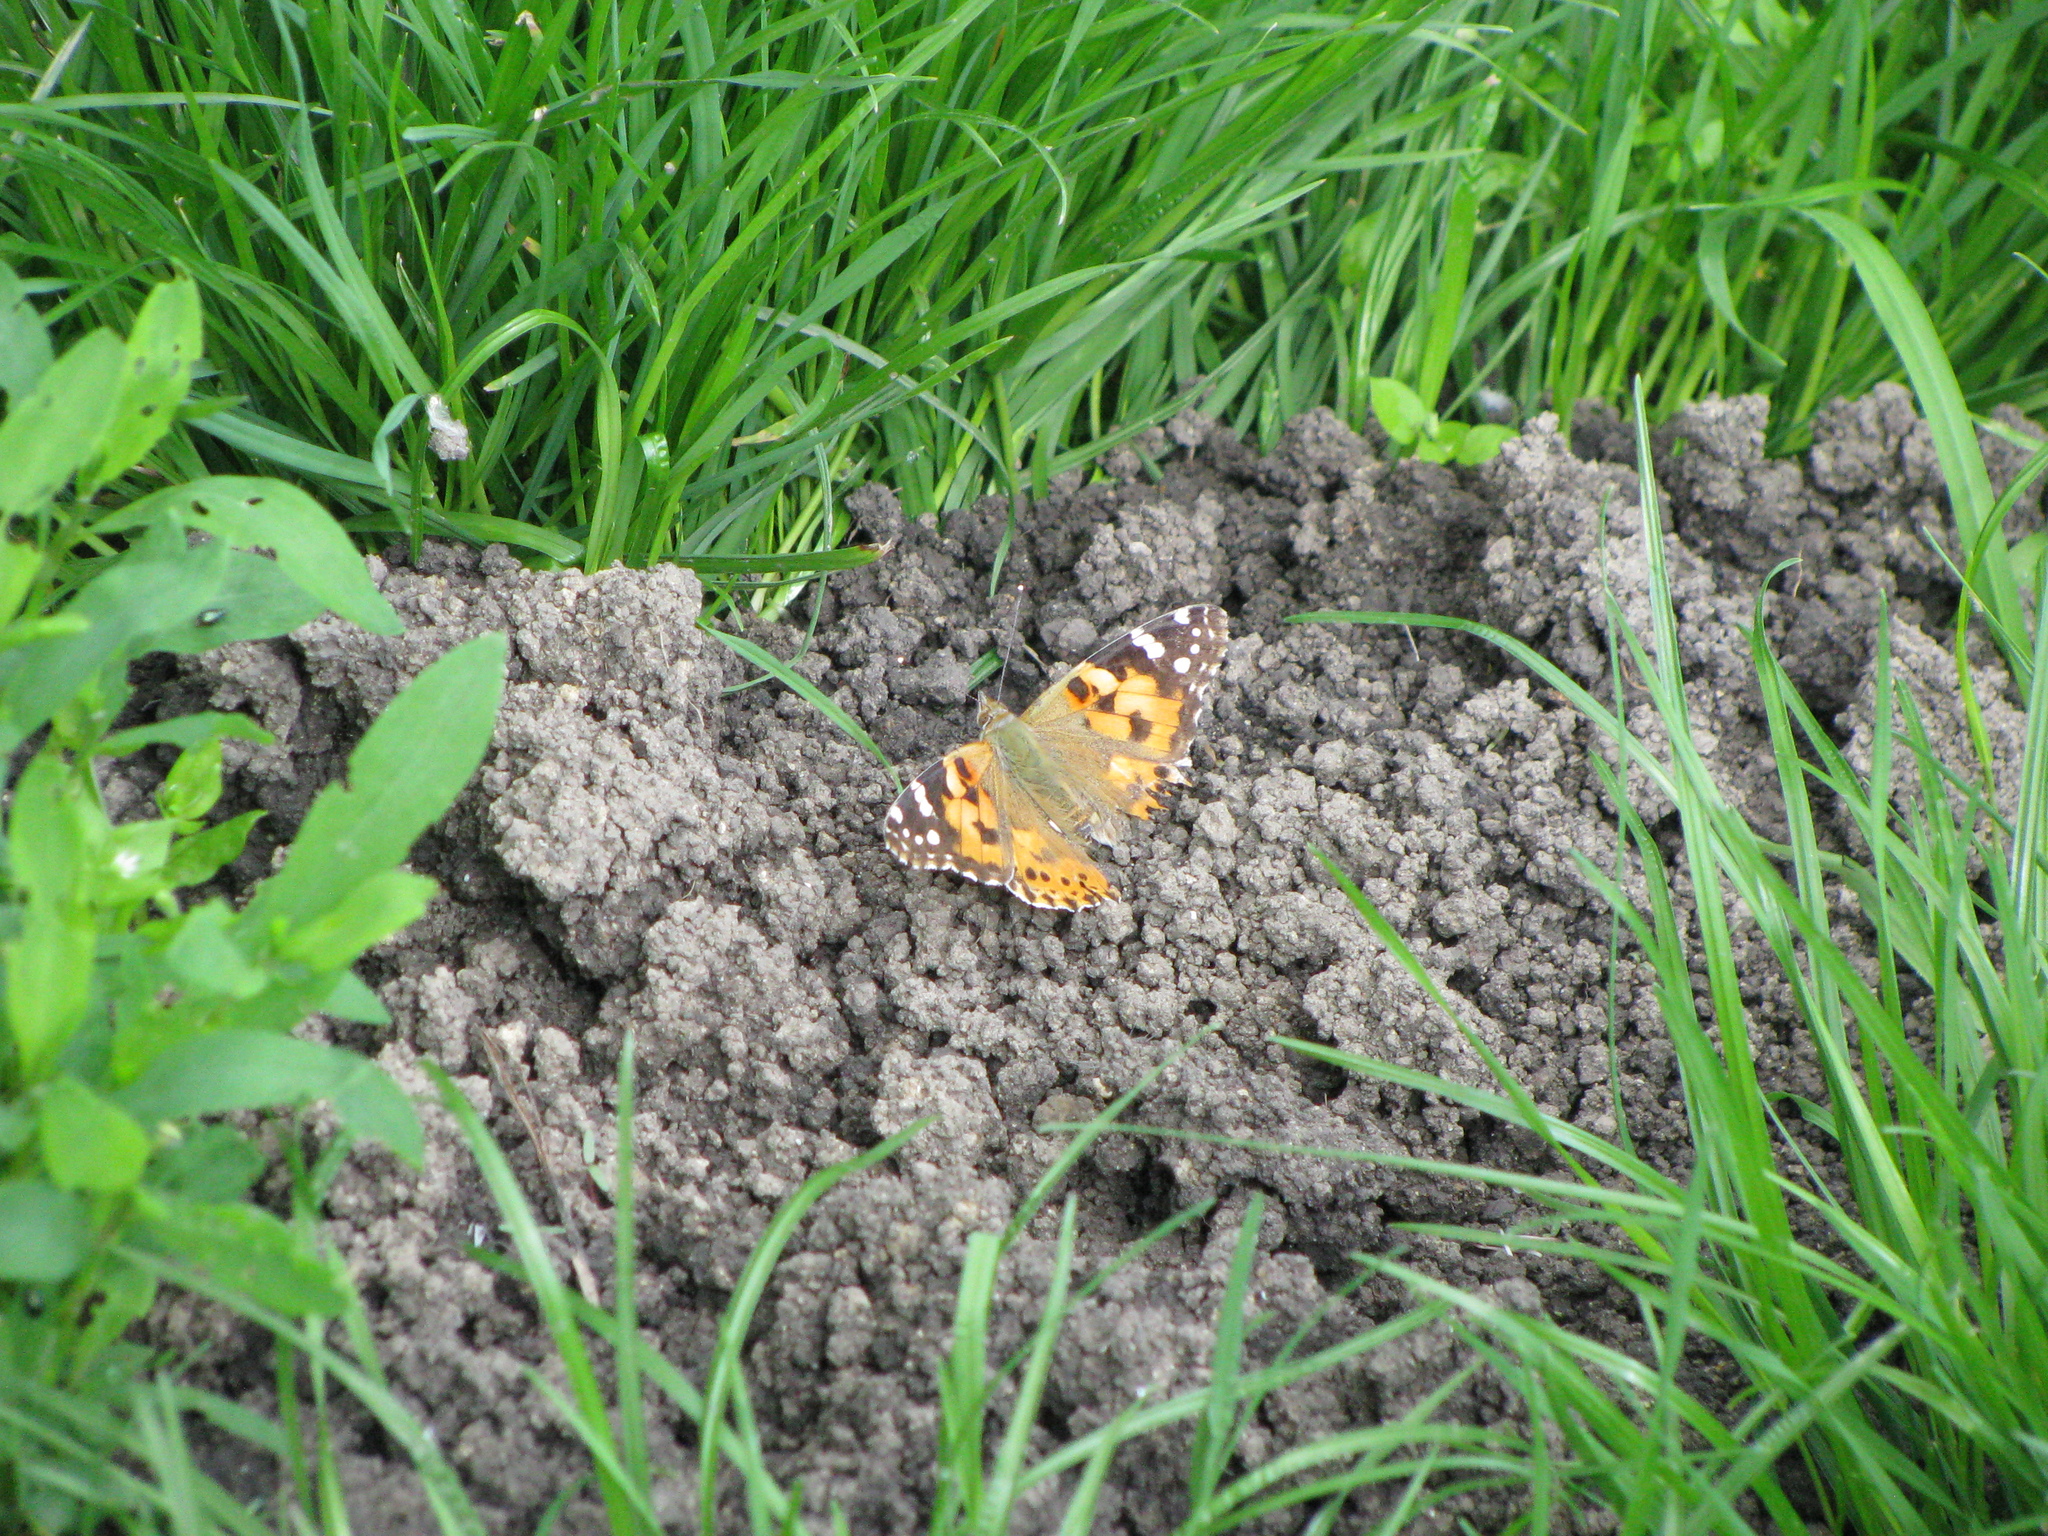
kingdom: Animalia
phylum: Arthropoda
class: Insecta
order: Lepidoptera
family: Nymphalidae
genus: Vanessa
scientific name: Vanessa cardui
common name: Painted lady
